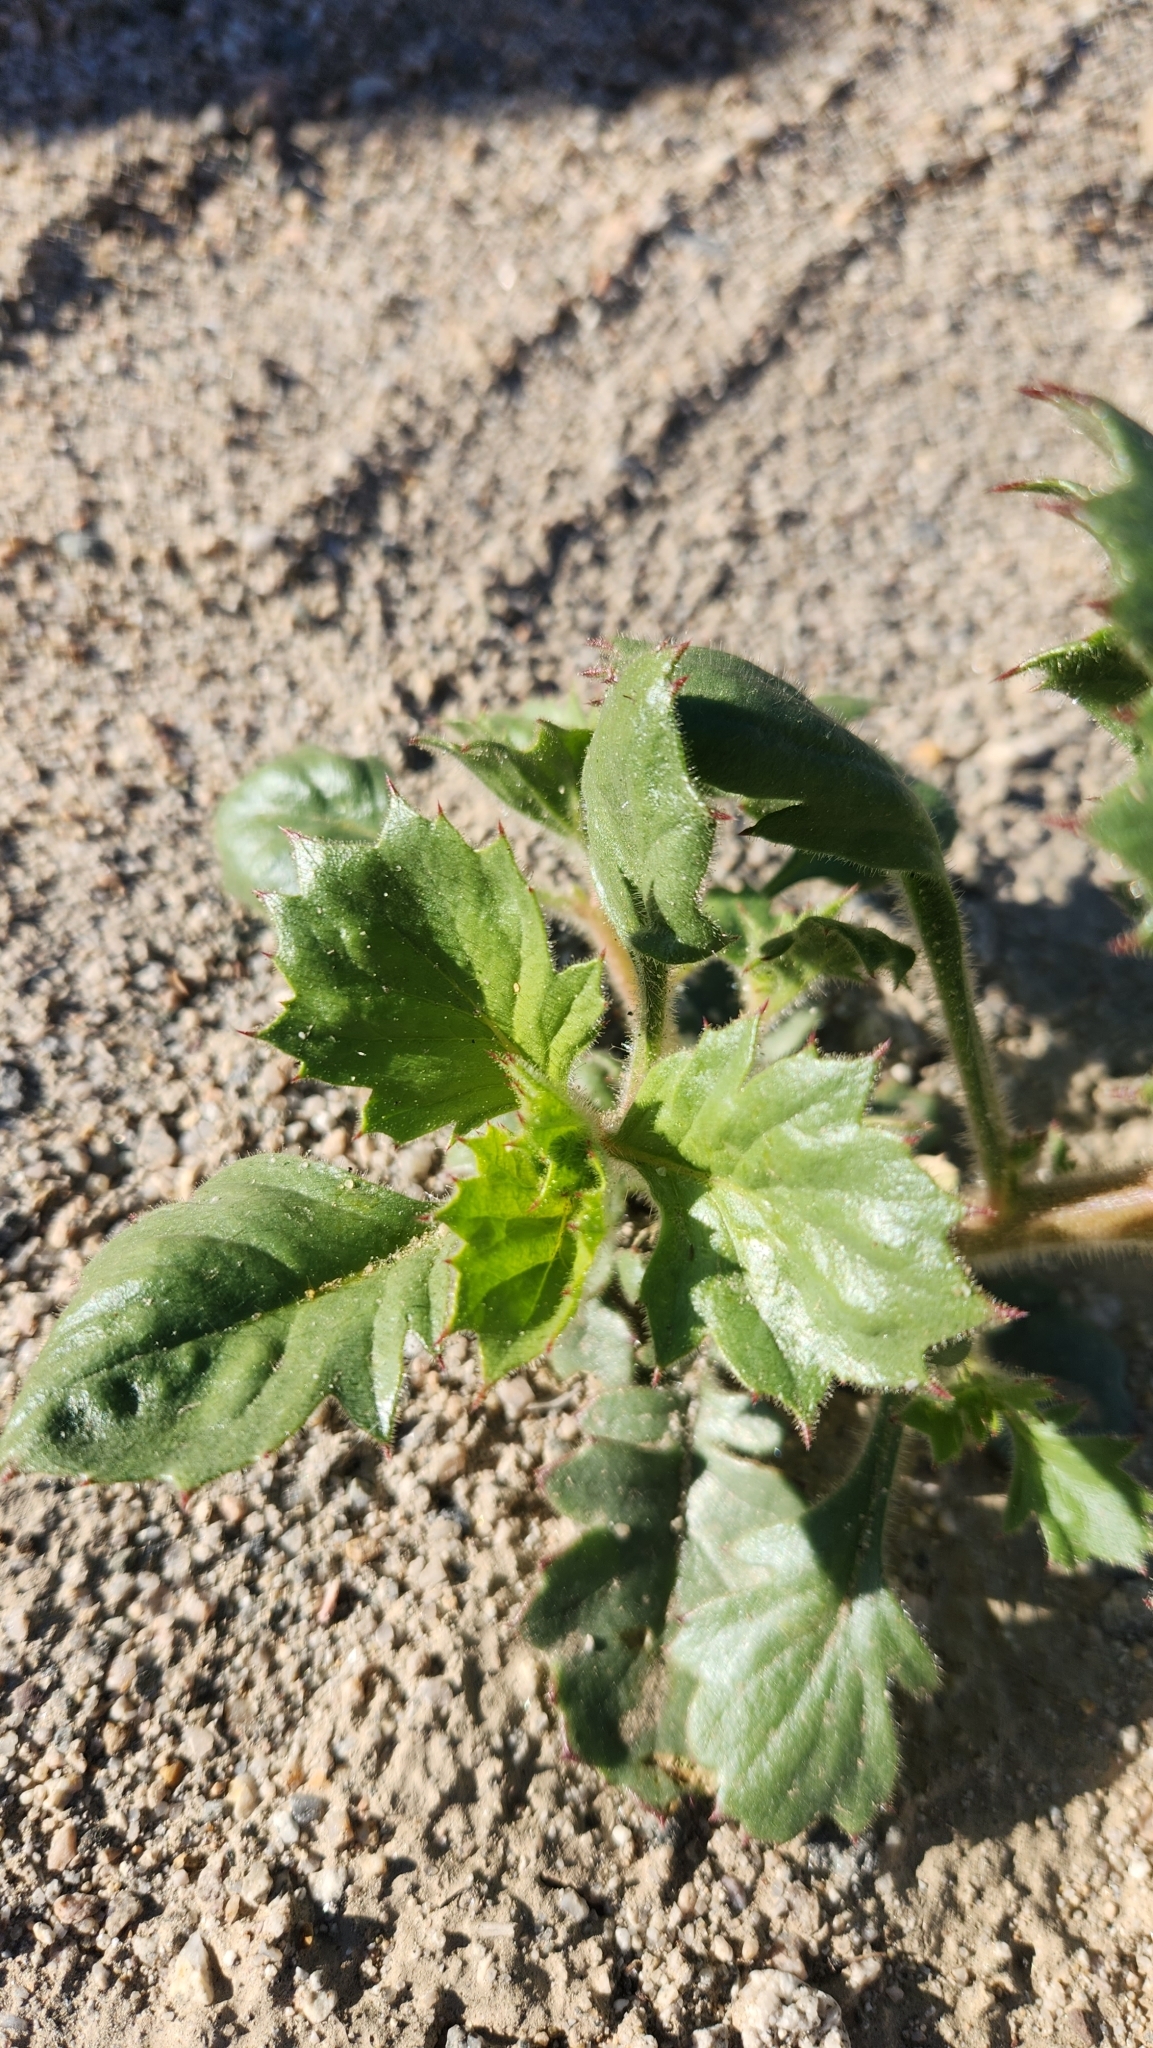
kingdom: Plantae
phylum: Tracheophyta
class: Magnoliopsida
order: Ericales
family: Polemoniaceae
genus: Aliciella
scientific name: Aliciella latifolia
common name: Broad-leaf gilia
